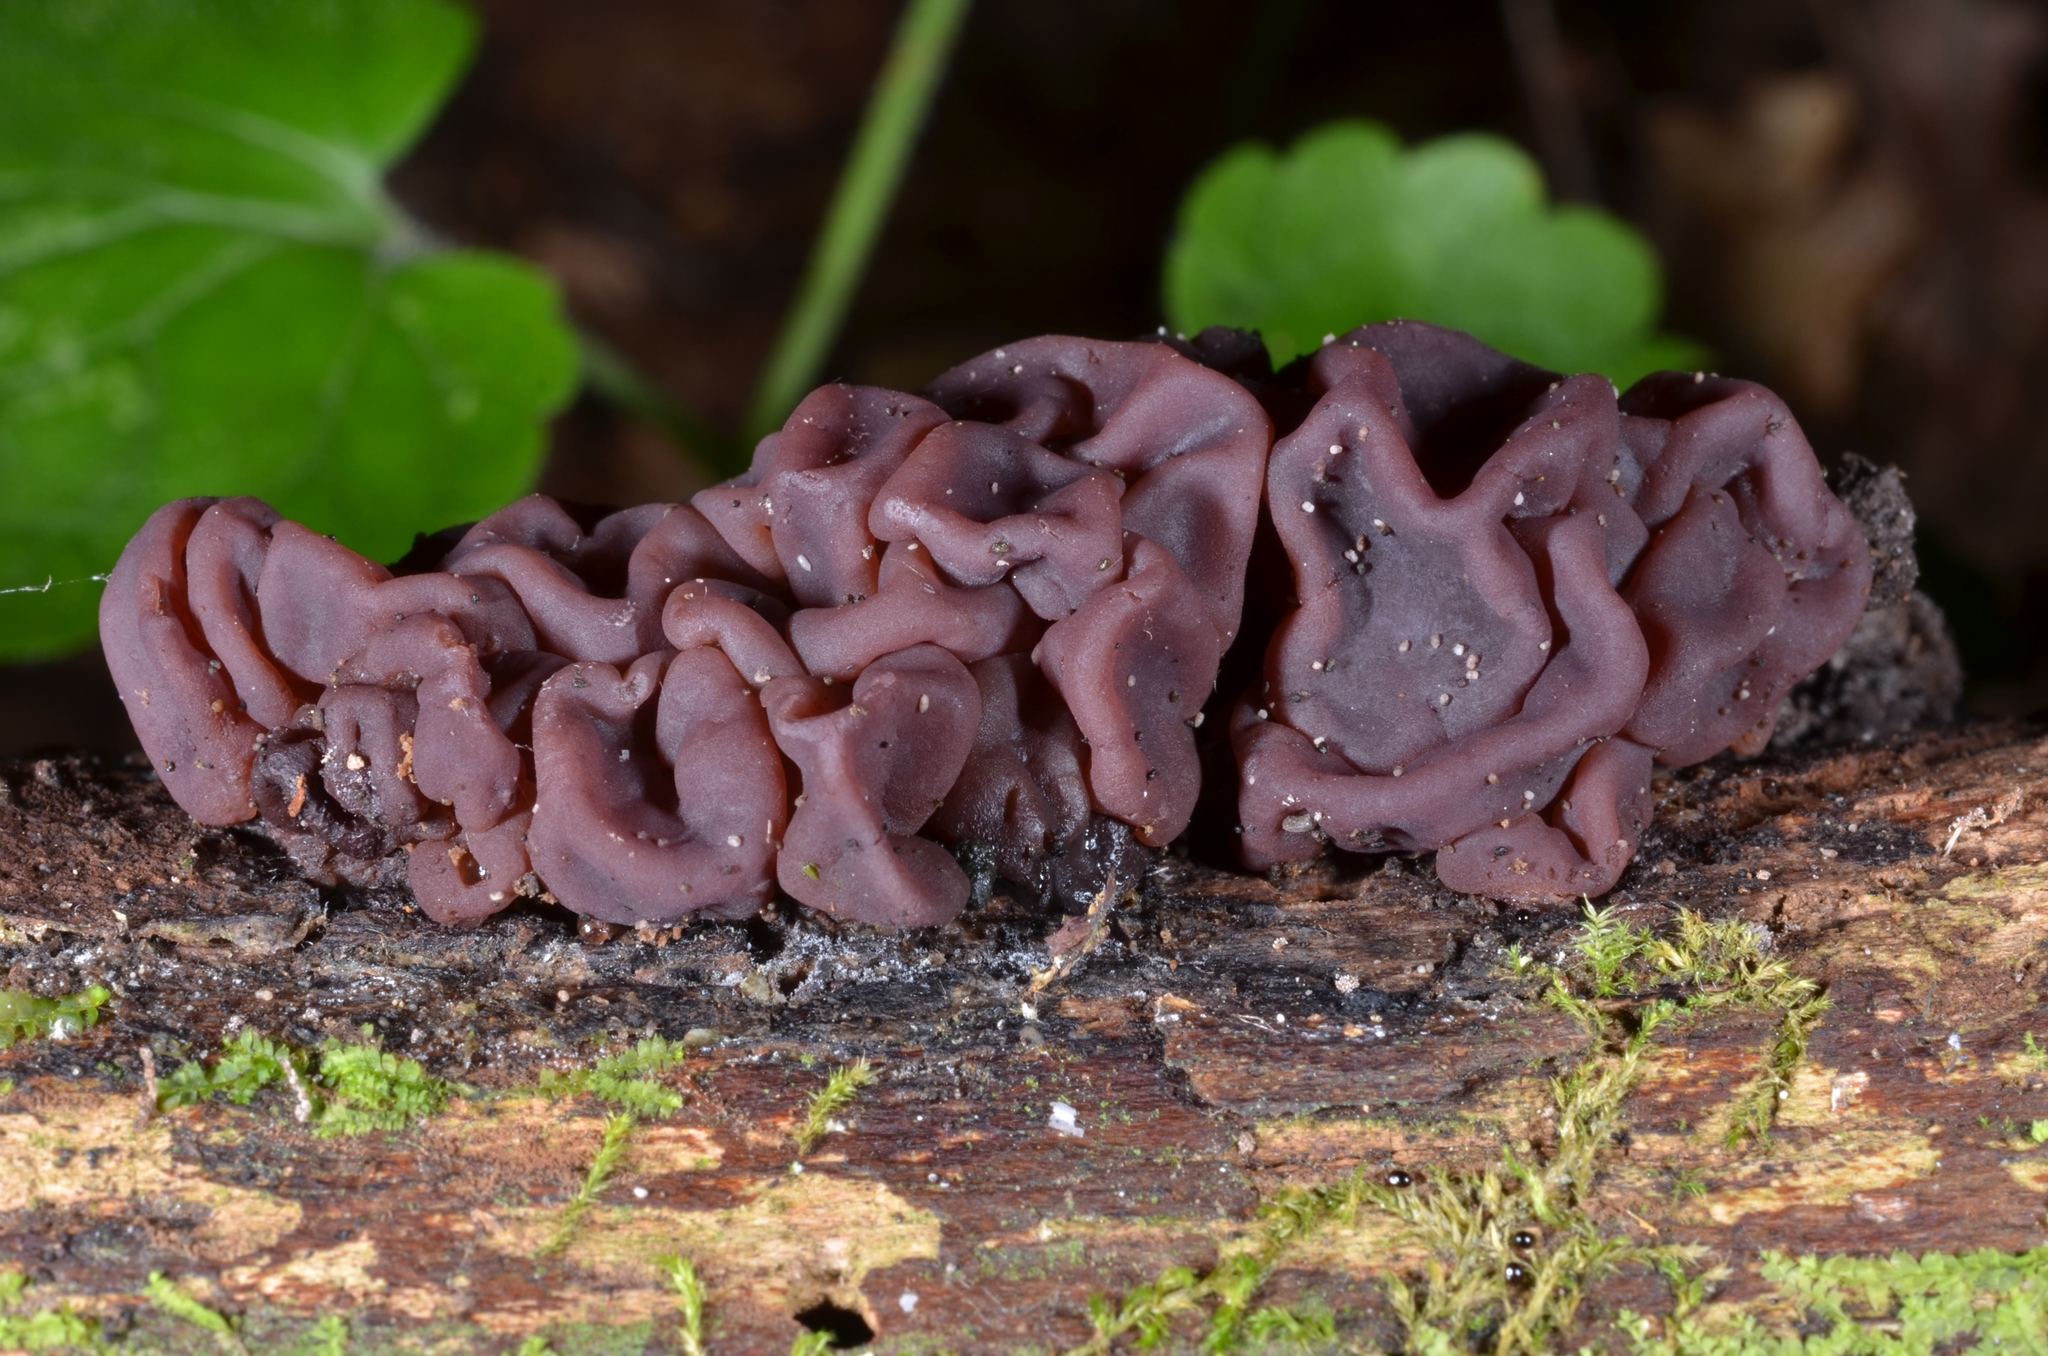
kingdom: Fungi
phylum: Ascomycota
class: Leotiomycetes
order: Helotiales
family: Gelatinodiscaceae
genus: Ascotremella
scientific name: Ascotremella faginea
